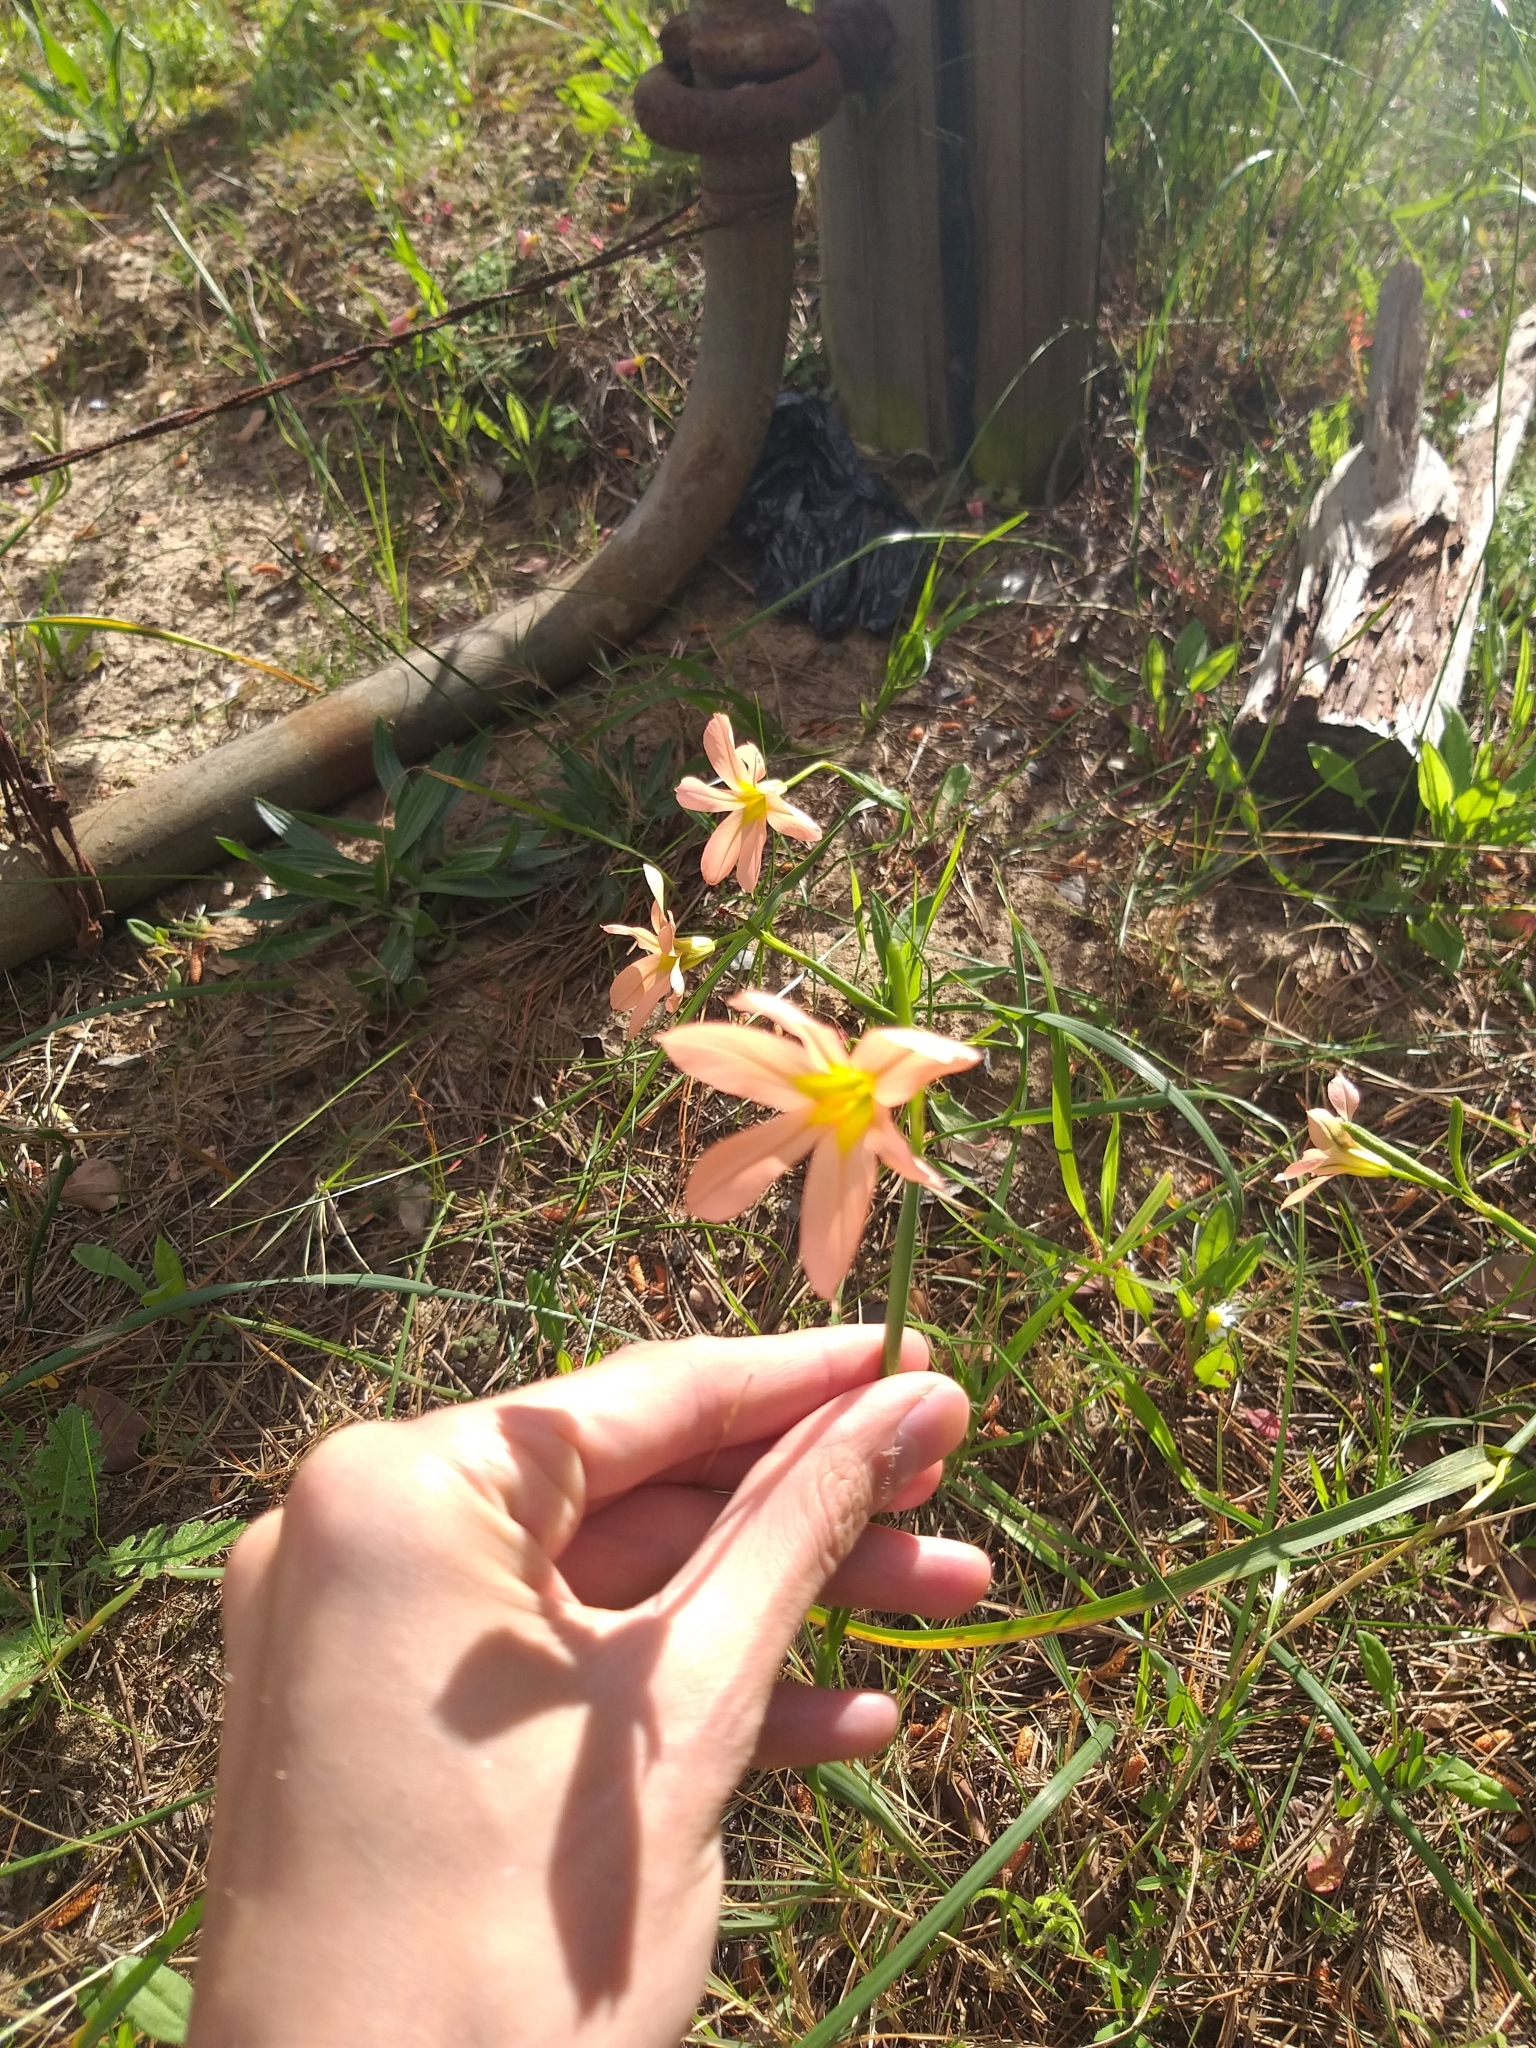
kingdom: Plantae
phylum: Tracheophyta
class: Liliopsida
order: Asparagales
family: Iridaceae
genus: Moraea
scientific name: Moraea collina
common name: Cape-tulip
